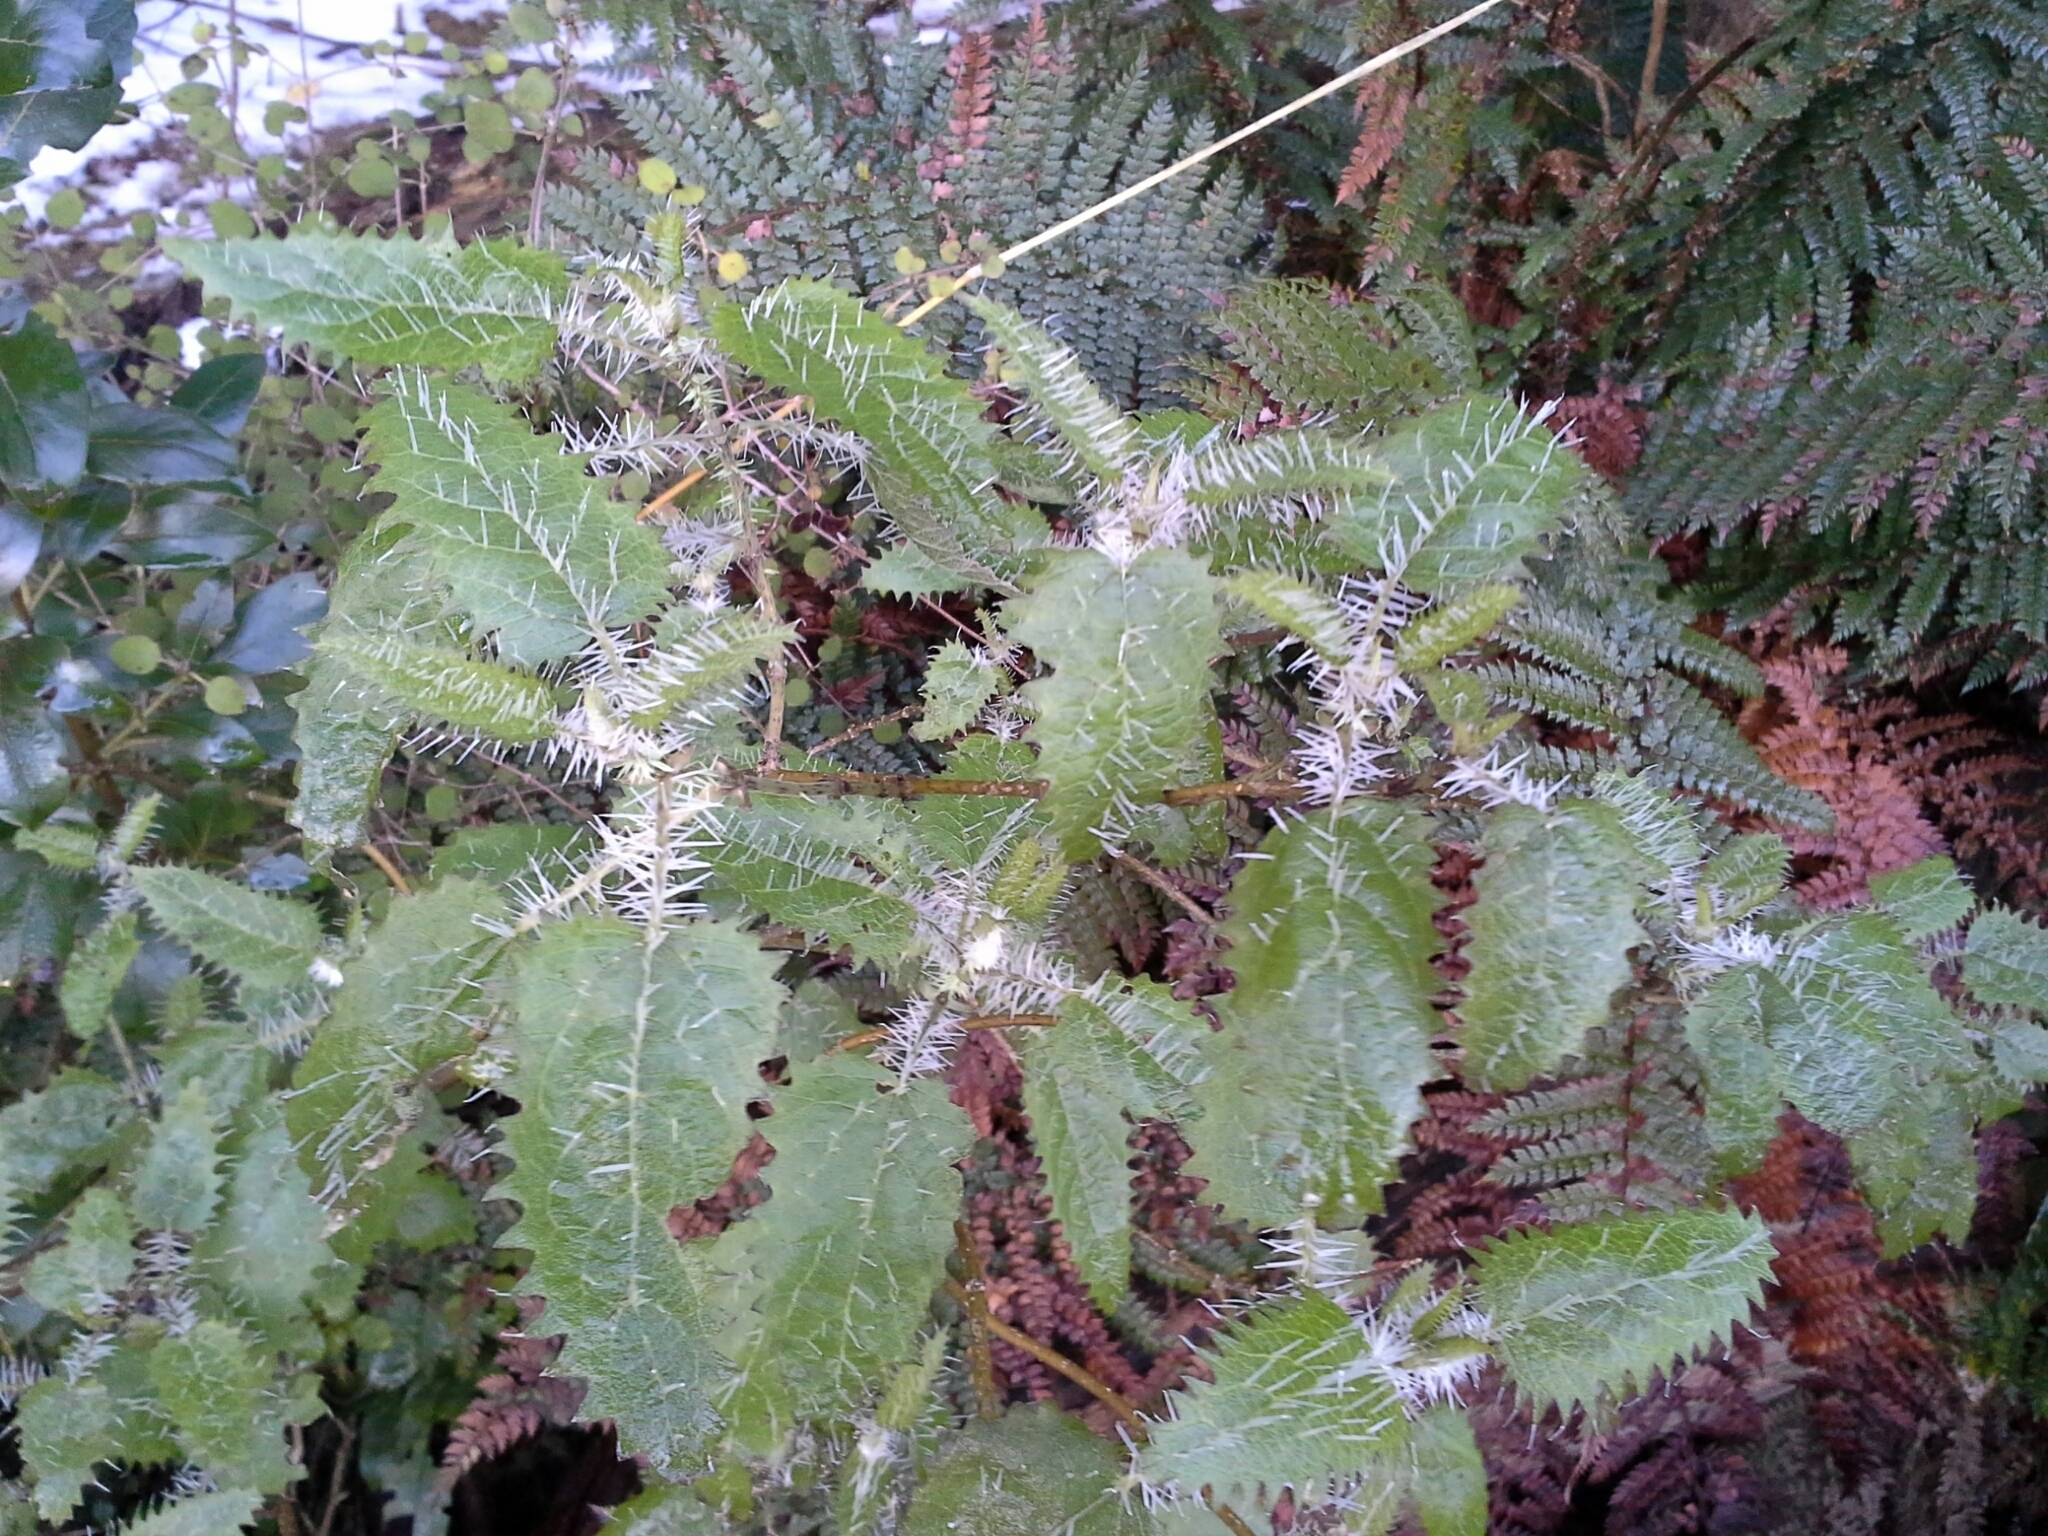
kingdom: Plantae
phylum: Tracheophyta
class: Magnoliopsida
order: Rosales
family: Urticaceae
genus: Urtica
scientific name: Urtica ferox
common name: Tree nettle
